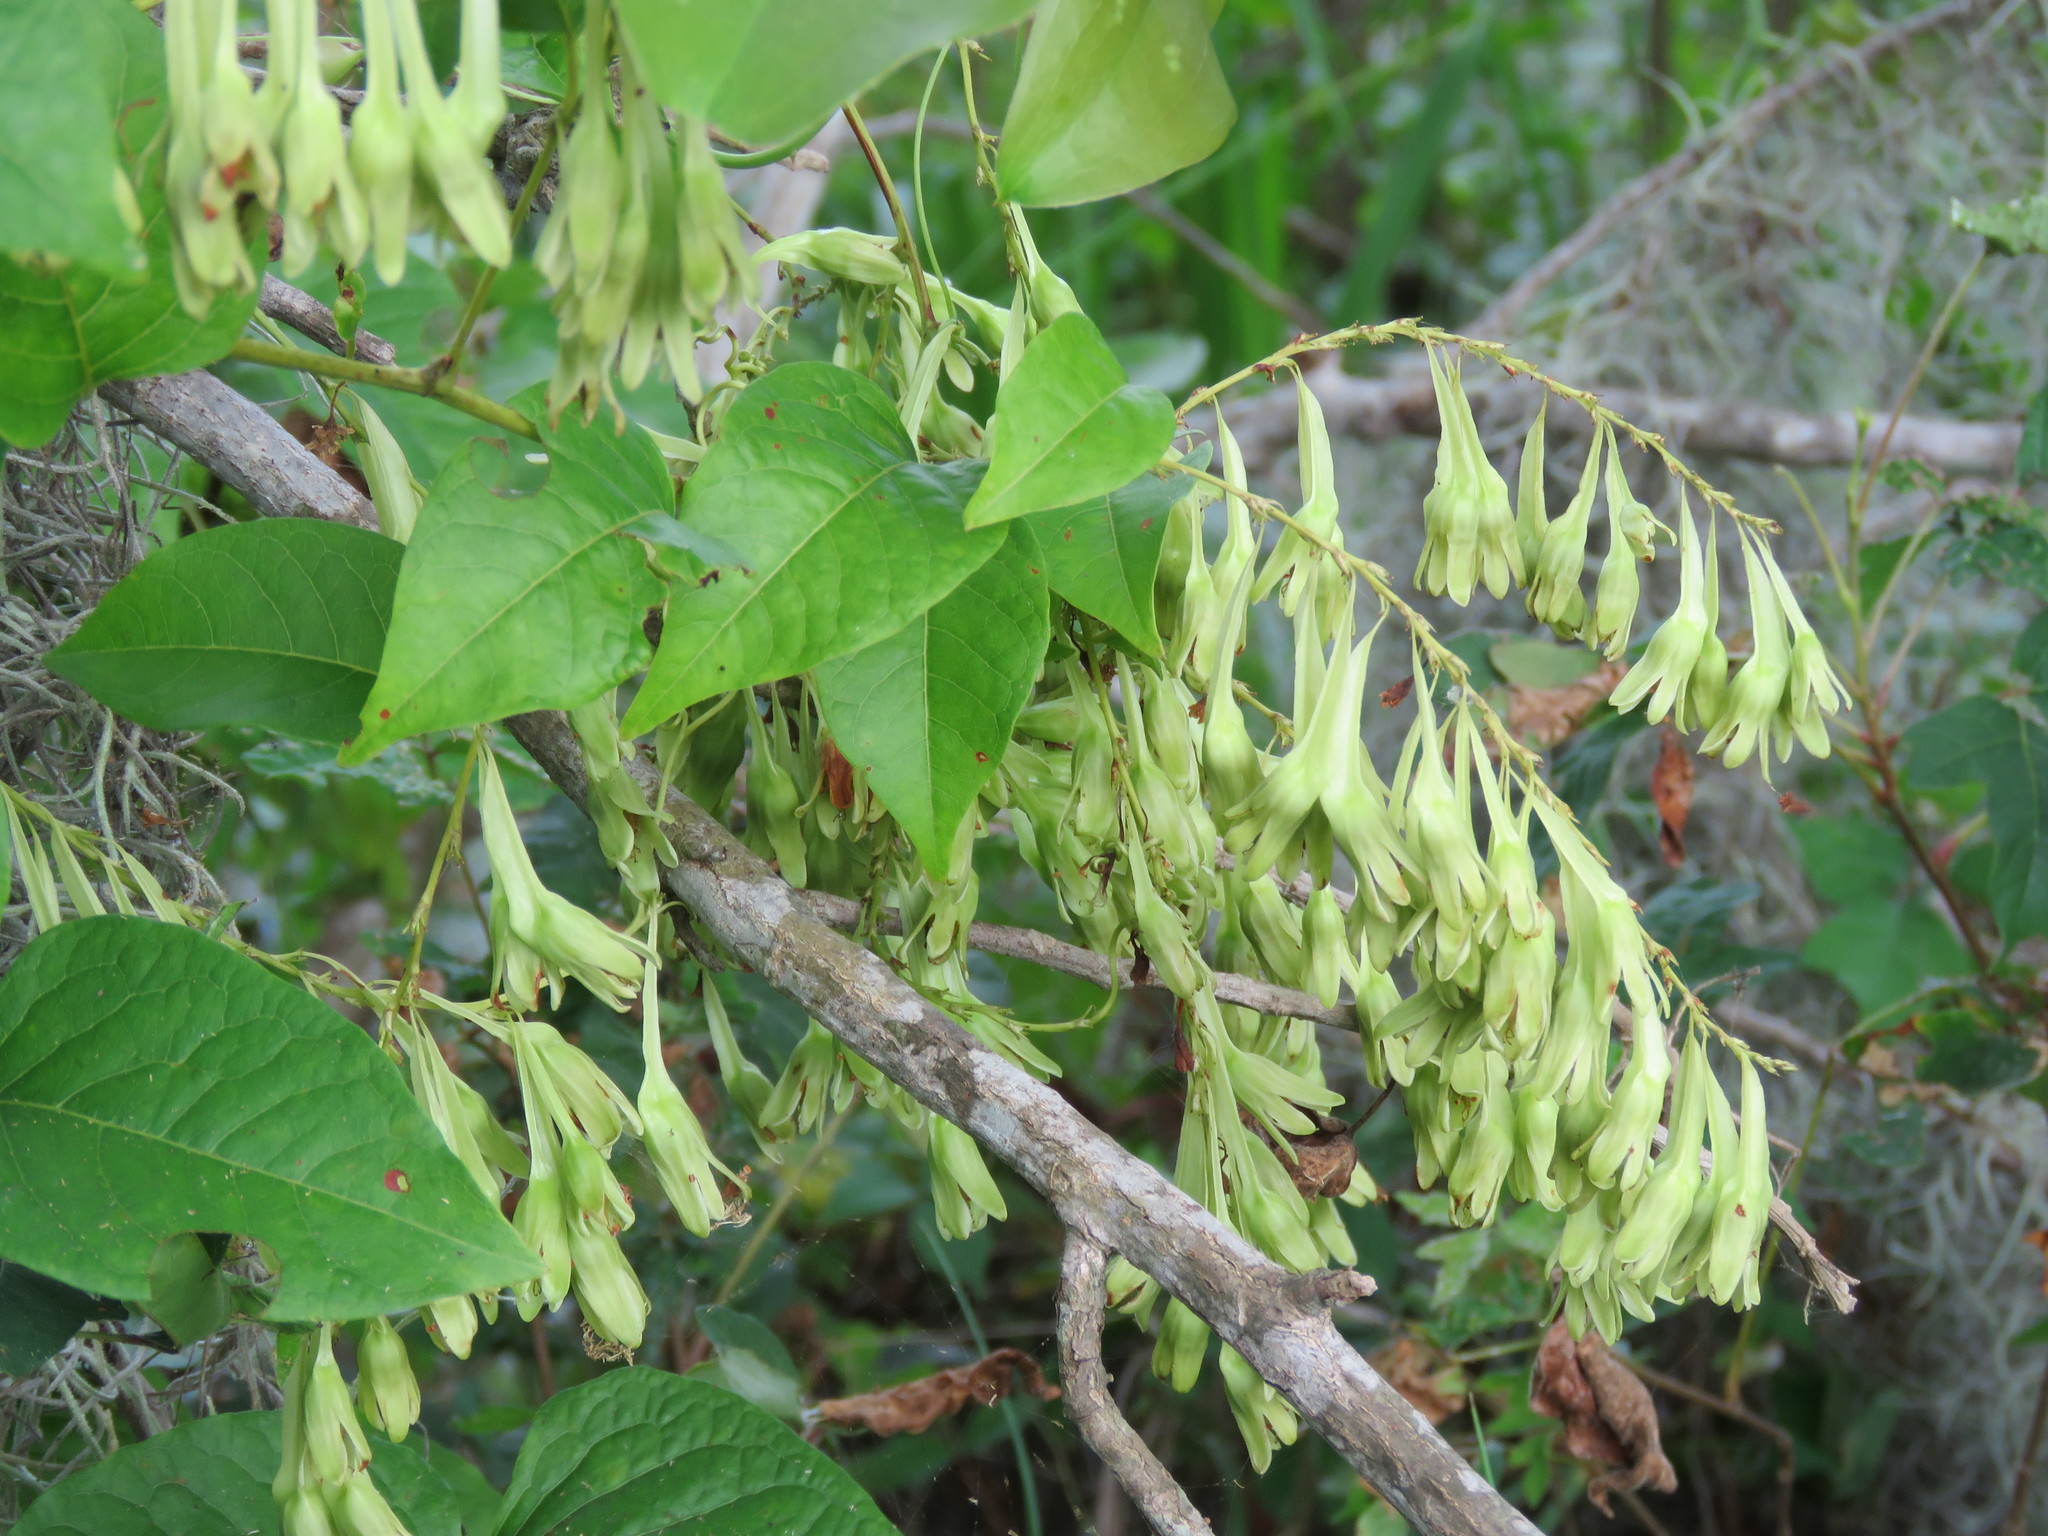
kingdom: Plantae
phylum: Tracheophyta
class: Magnoliopsida
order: Caryophyllales
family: Polygonaceae
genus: Brunnichia
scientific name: Brunnichia ovata
